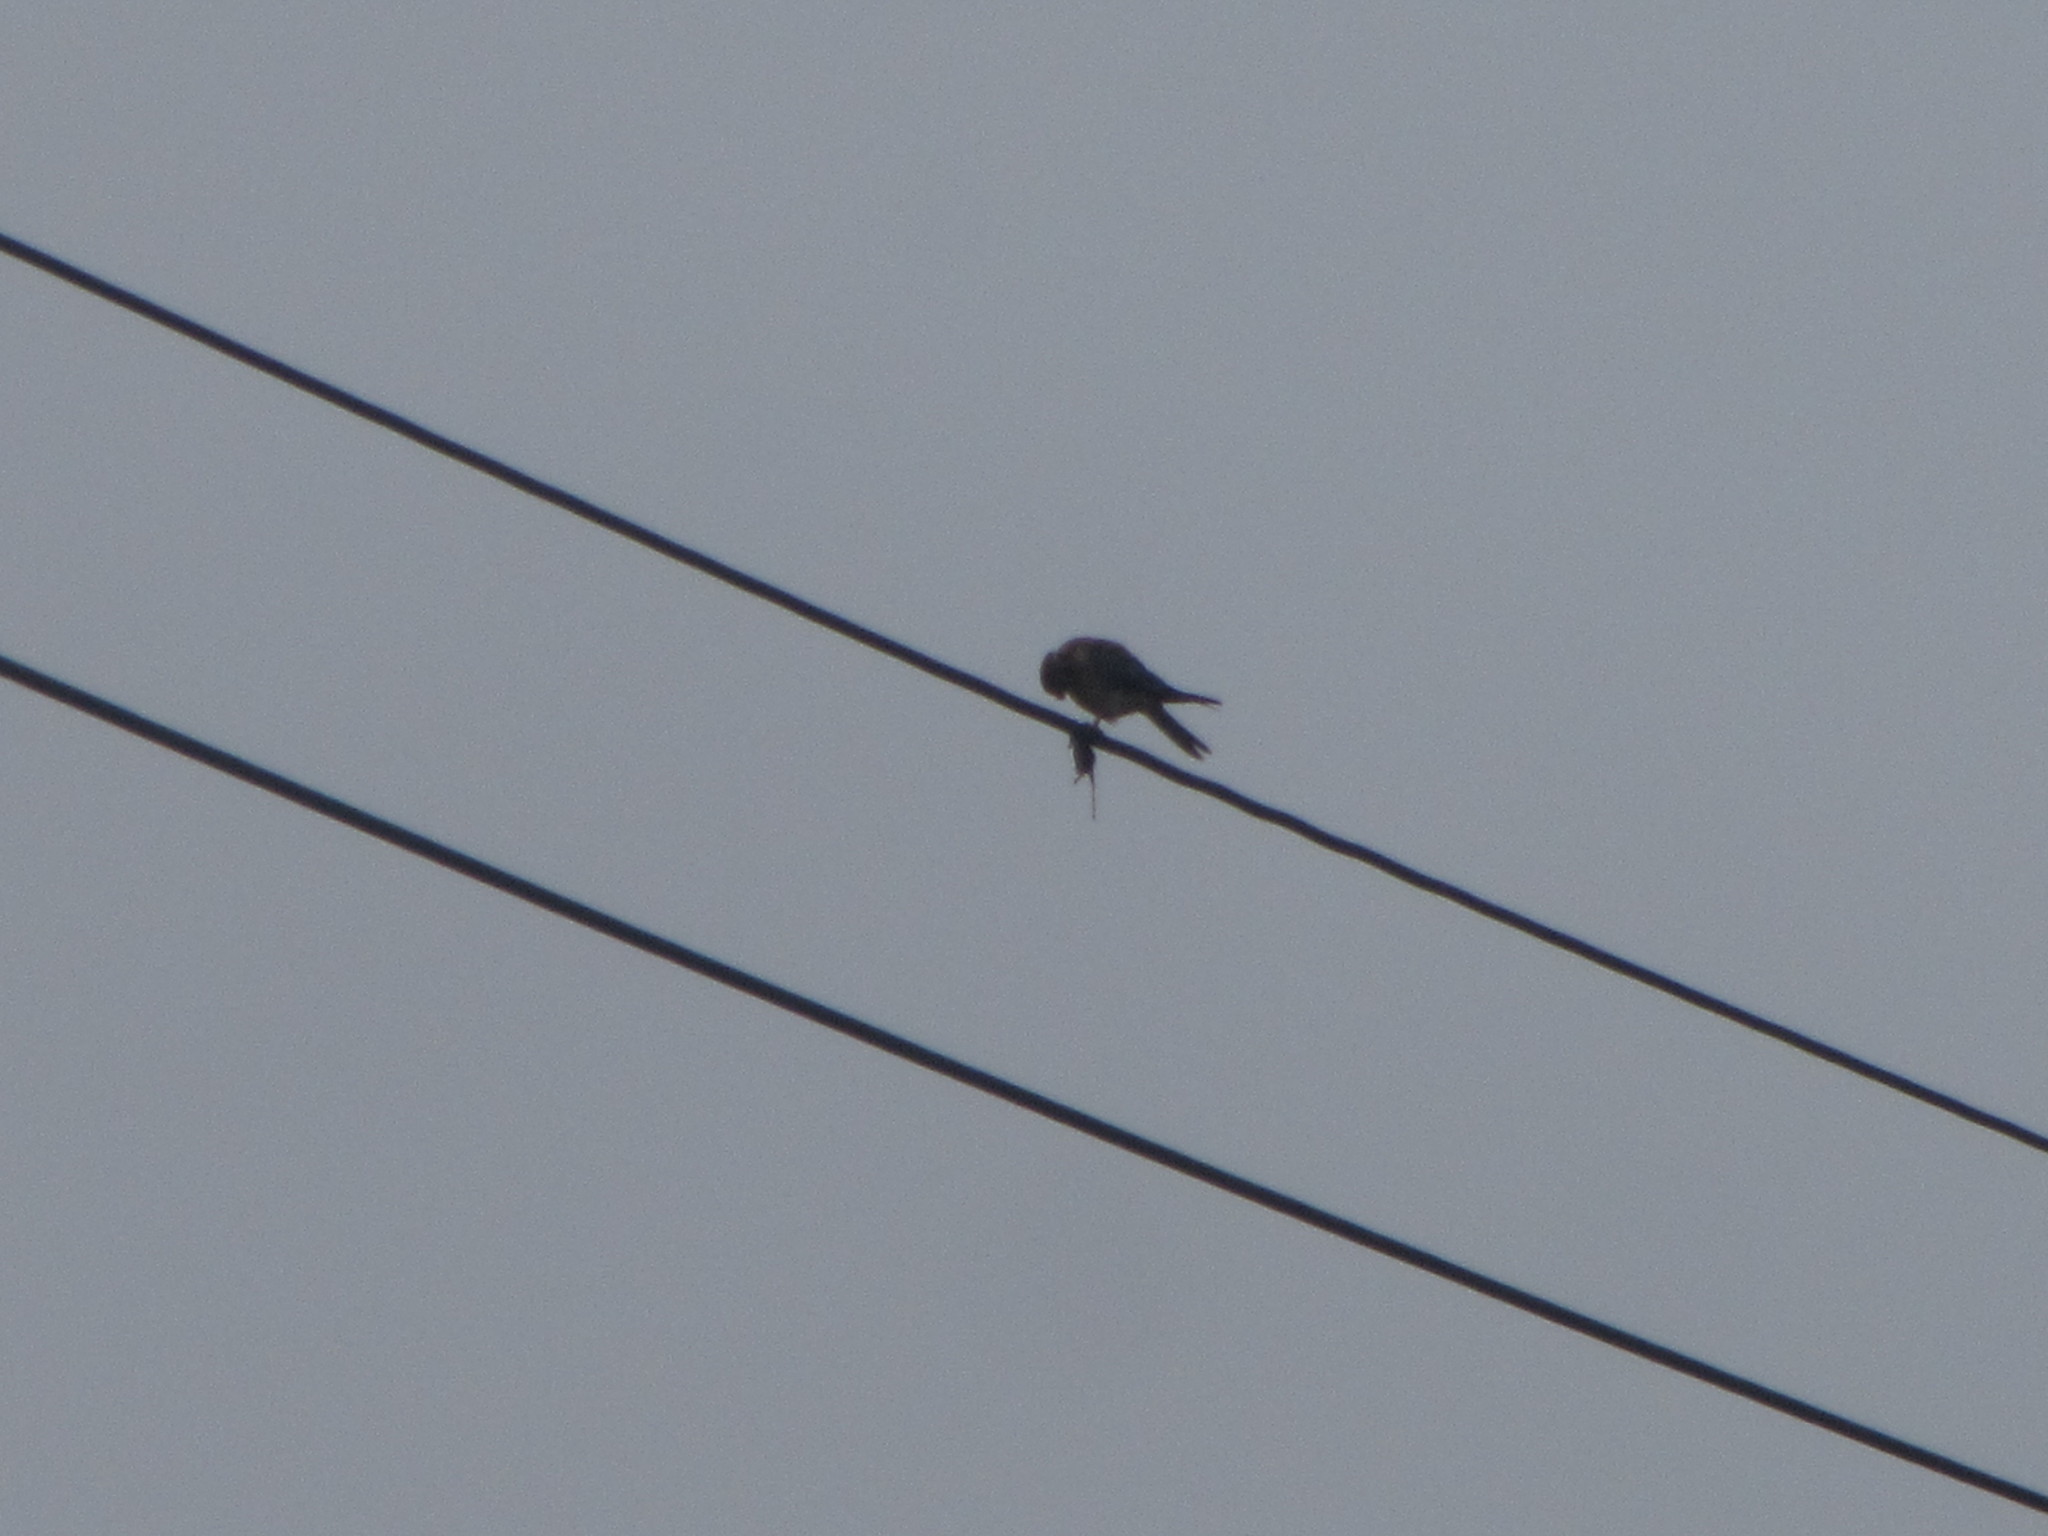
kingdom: Animalia
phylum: Chordata
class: Aves
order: Falconiformes
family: Falconidae
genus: Falco
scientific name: Falco sparverius
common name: American kestrel
